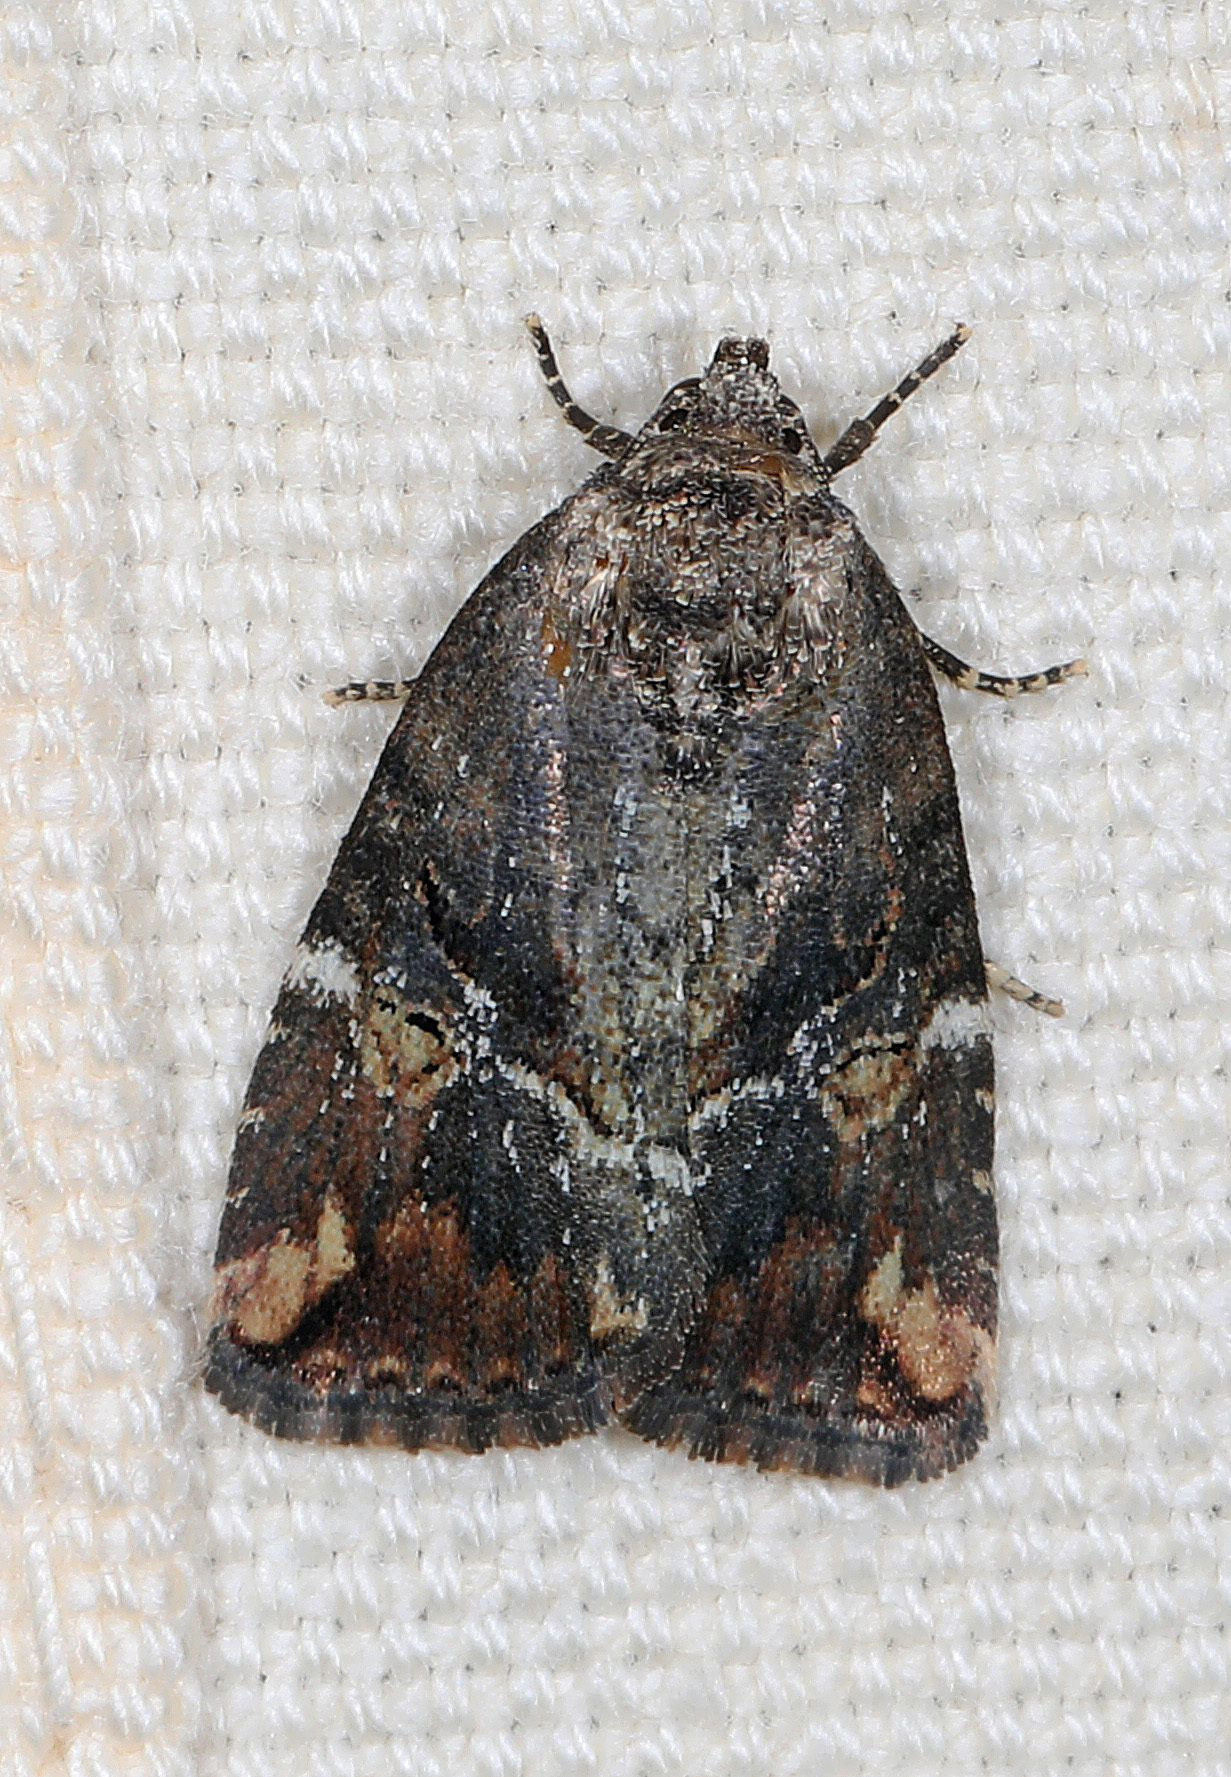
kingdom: Animalia
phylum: Arthropoda
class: Insecta
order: Lepidoptera
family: Noctuidae
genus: Elaphria
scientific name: Elaphria versicolor
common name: Fir harlequin
